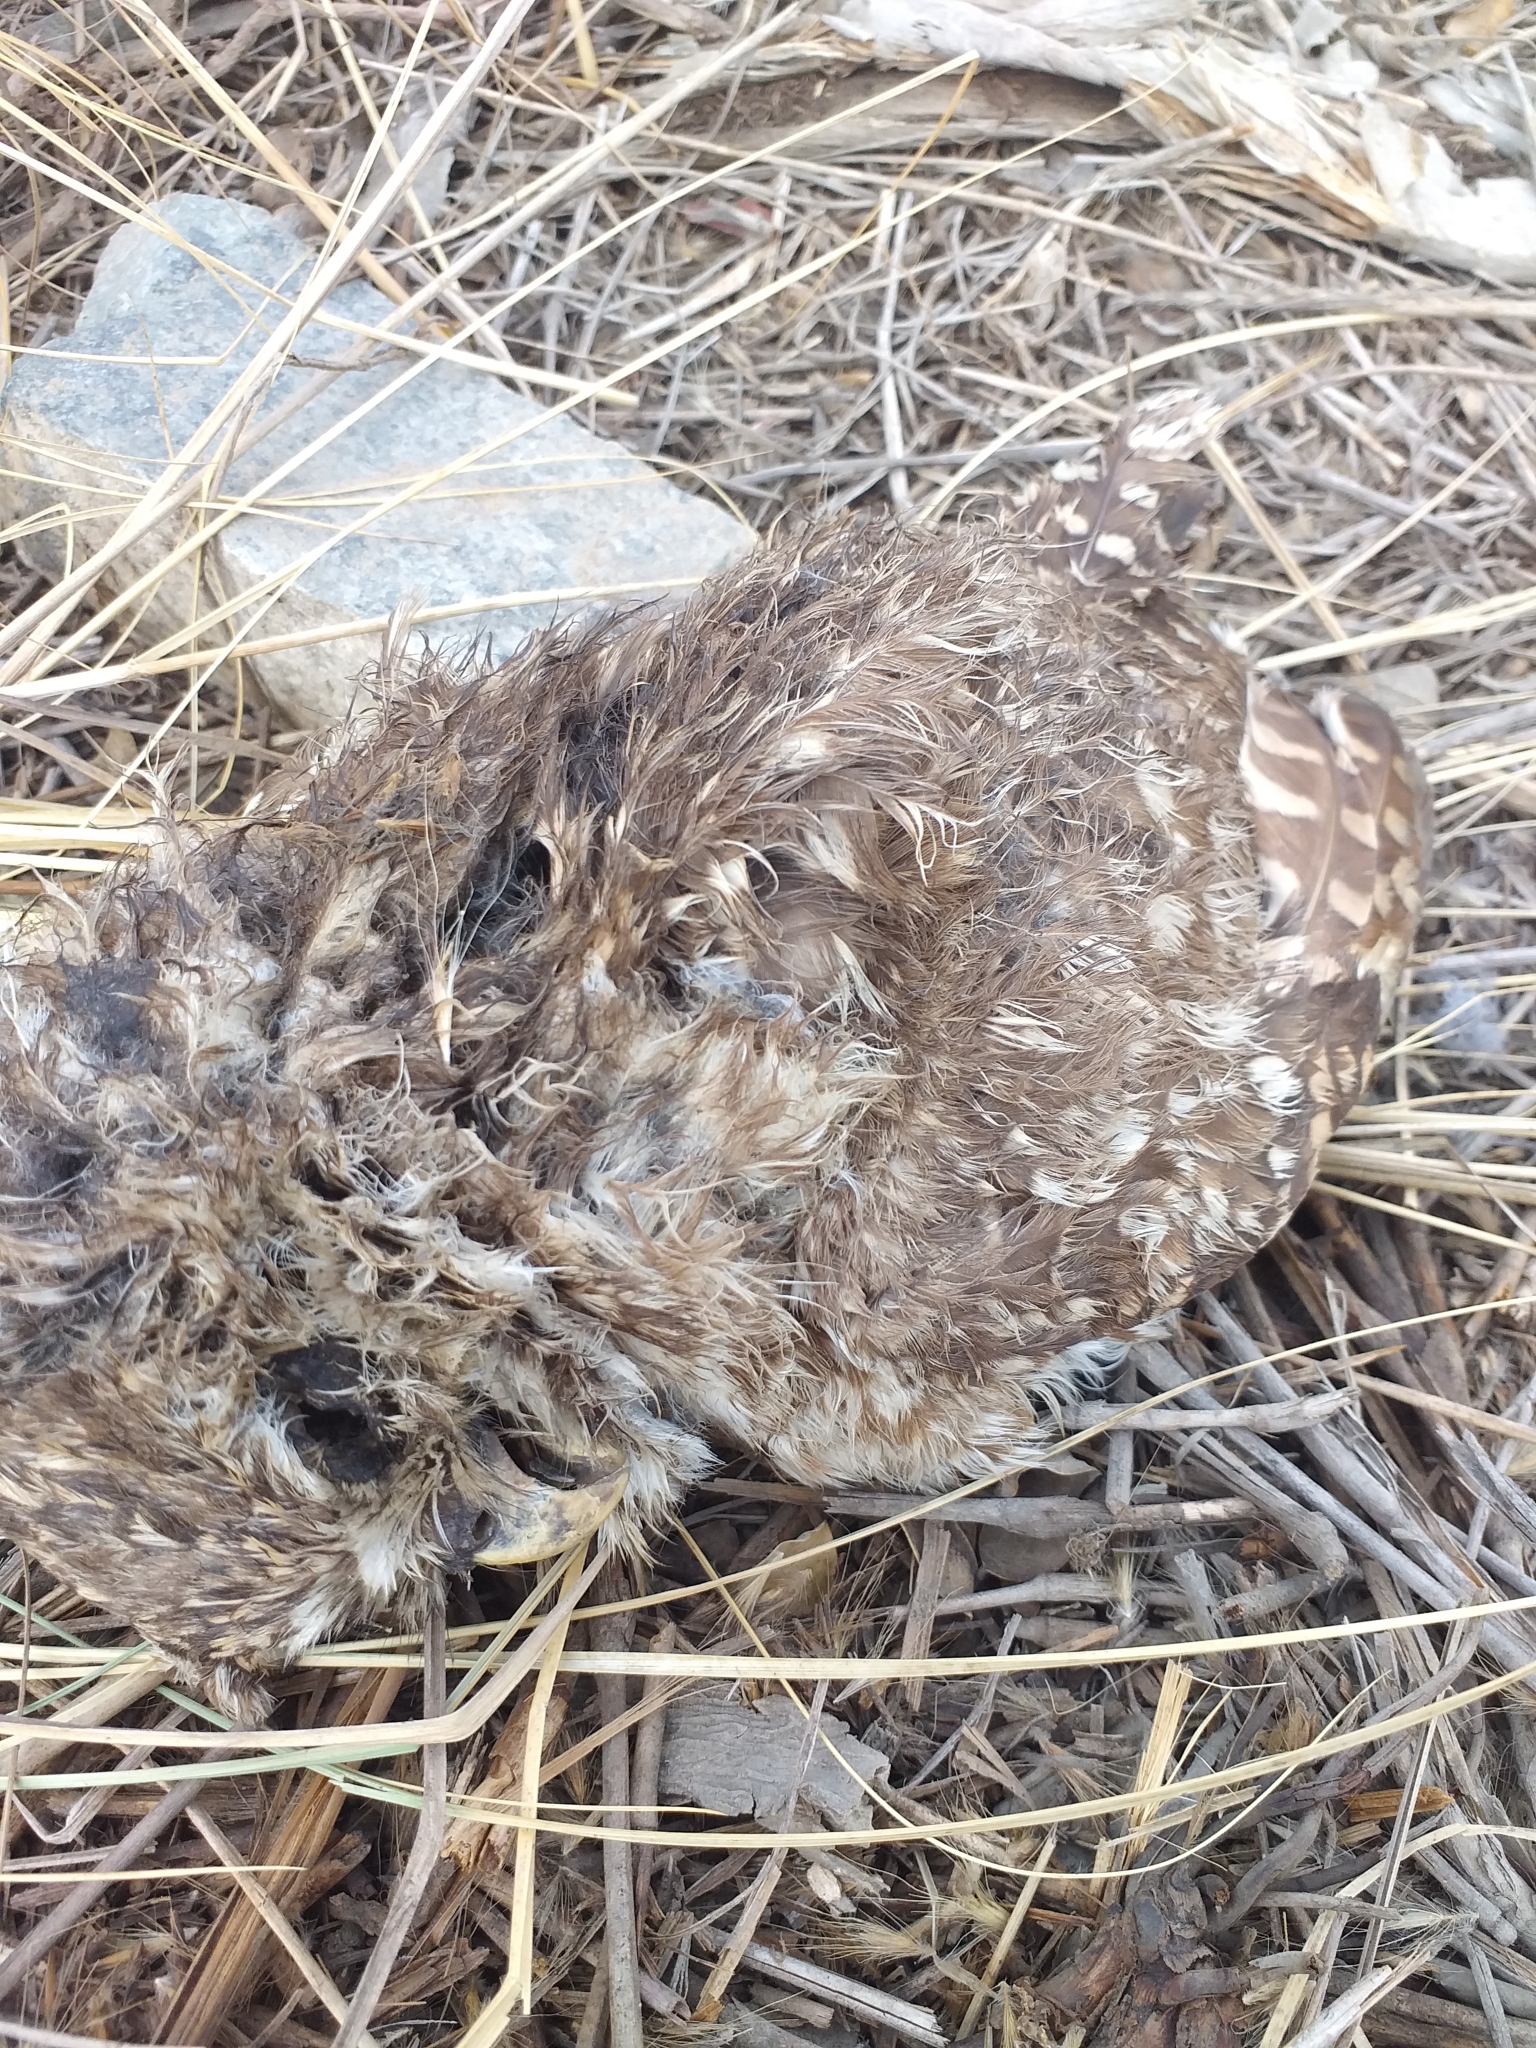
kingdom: Animalia
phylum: Chordata
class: Aves
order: Strigiformes
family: Strigidae
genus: Athene
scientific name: Athene cunicularia
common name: Burrowing owl
